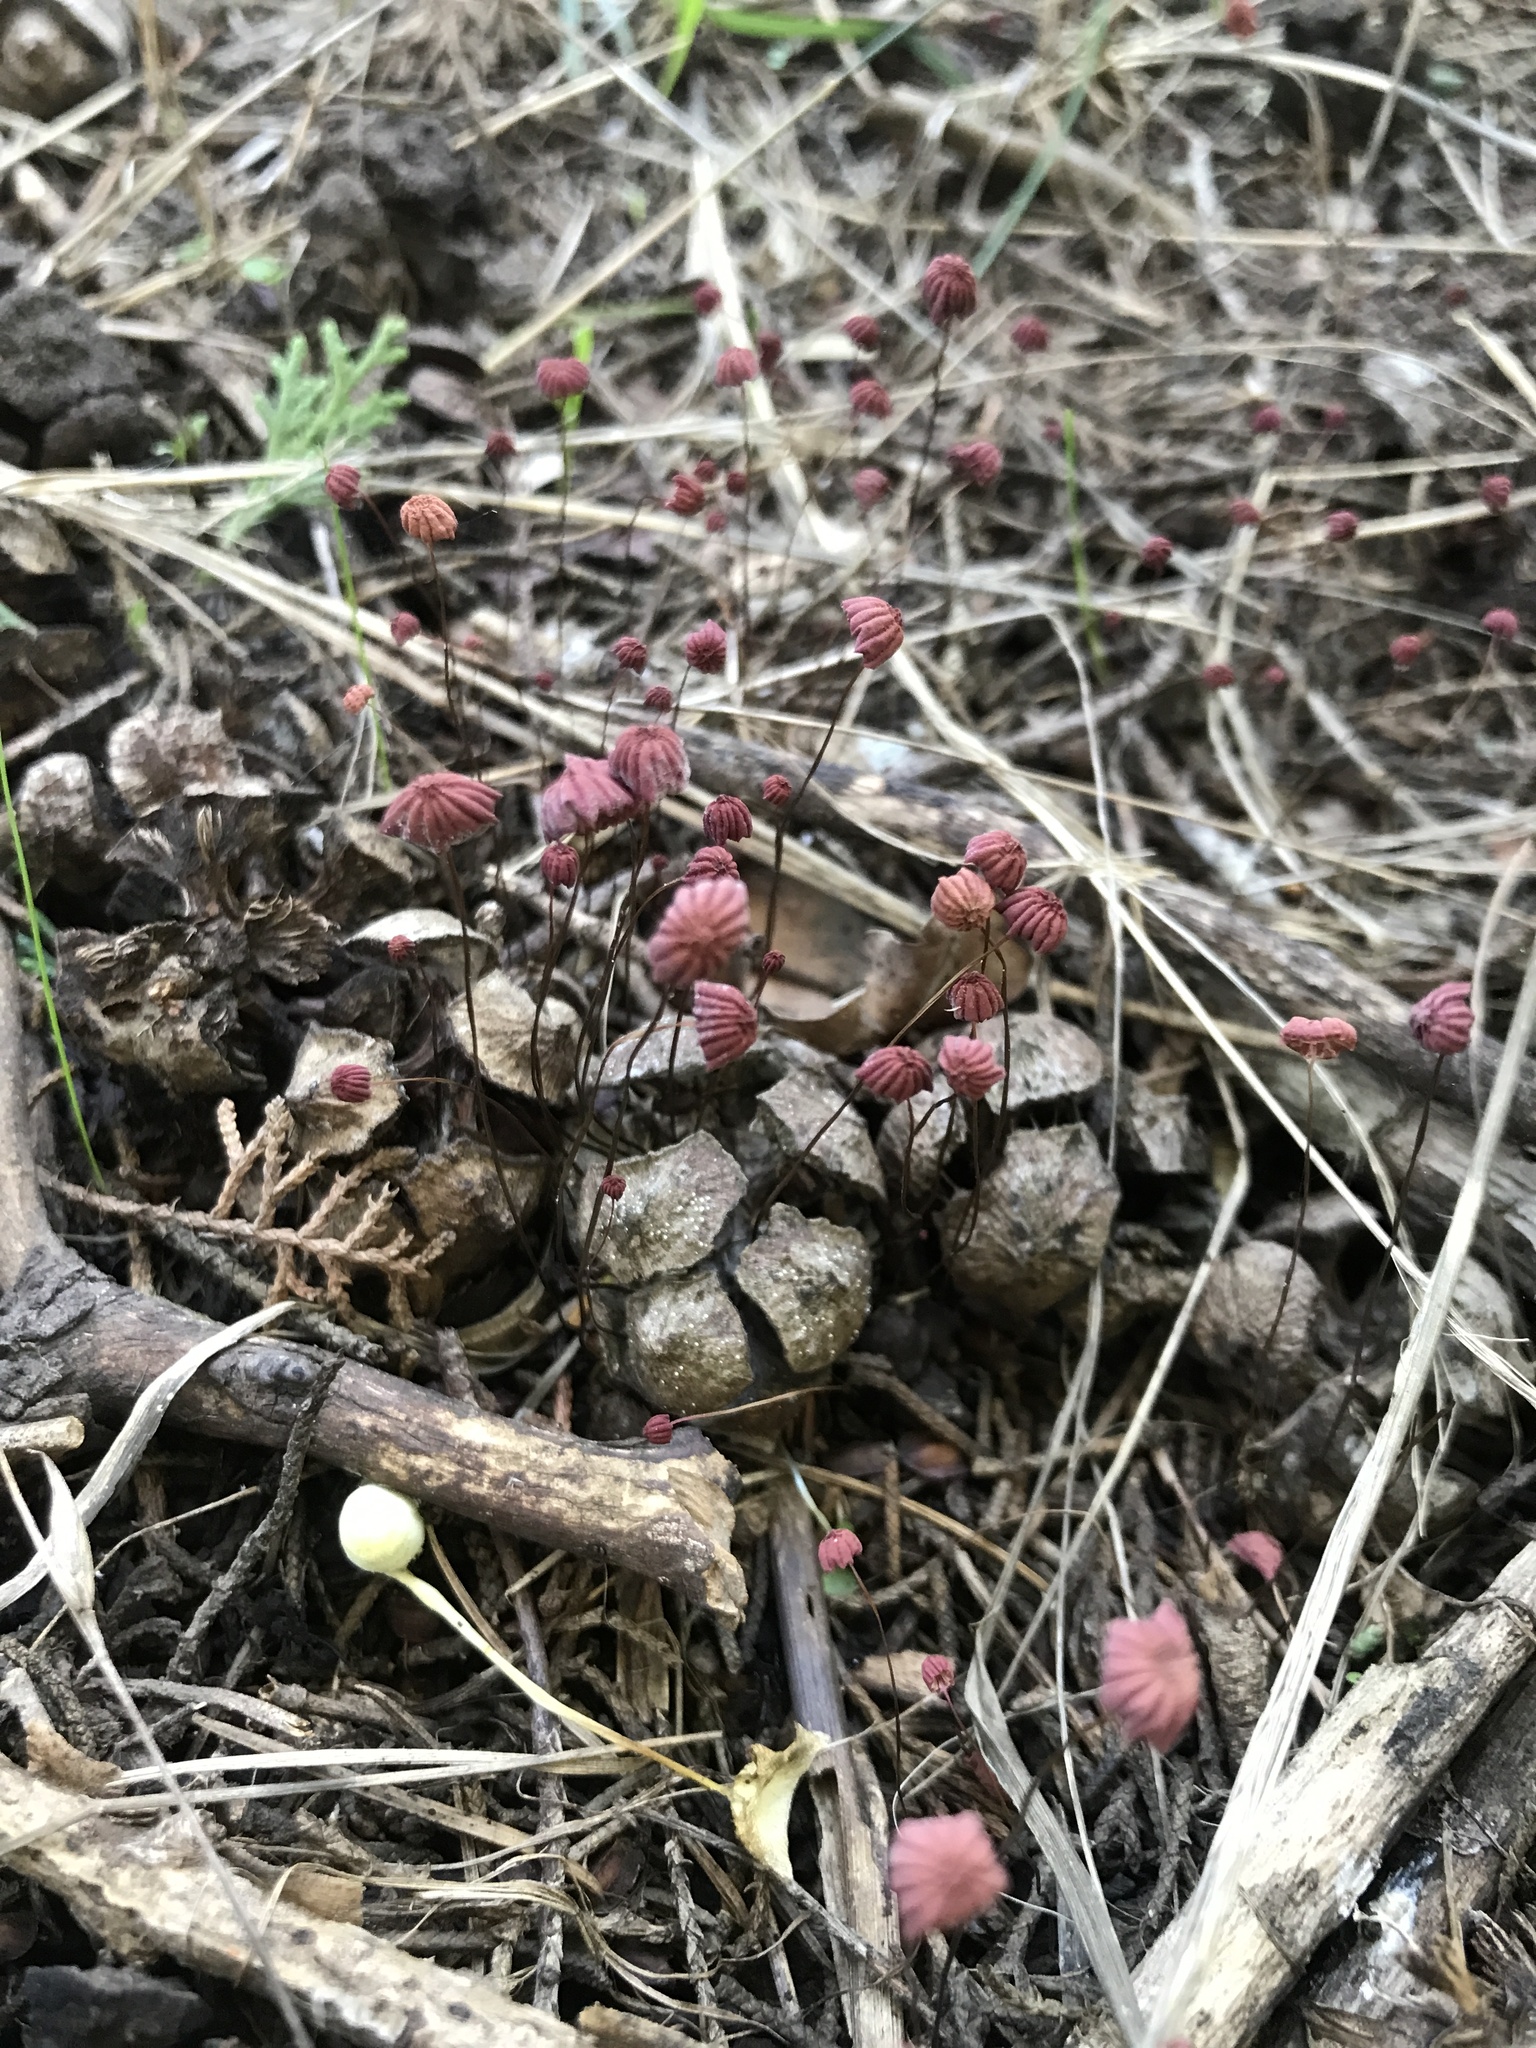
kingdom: Fungi
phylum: Basidiomycota
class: Agaricomycetes
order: Agaricales
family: Marasmiaceae
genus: Marasmius
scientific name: Marasmius haematocephalus
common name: Purple pinwheel
